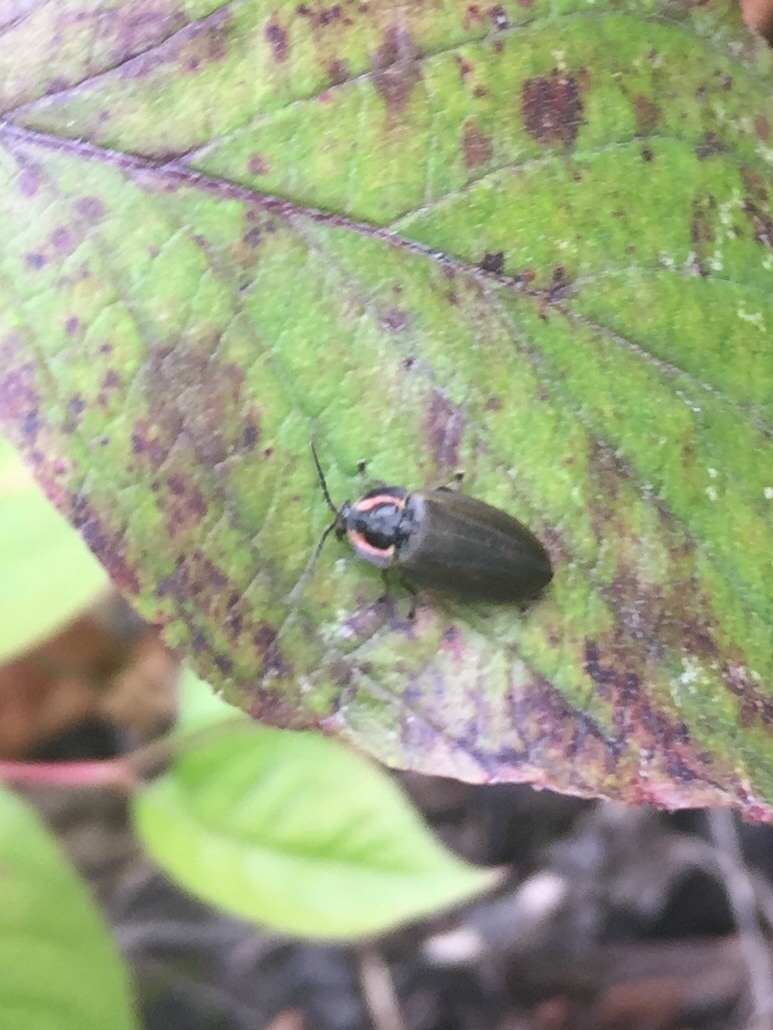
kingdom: Animalia
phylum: Arthropoda
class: Insecta
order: Coleoptera
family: Lampyridae
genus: Photinus
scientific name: Photinus corrusca
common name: Winter firefly
